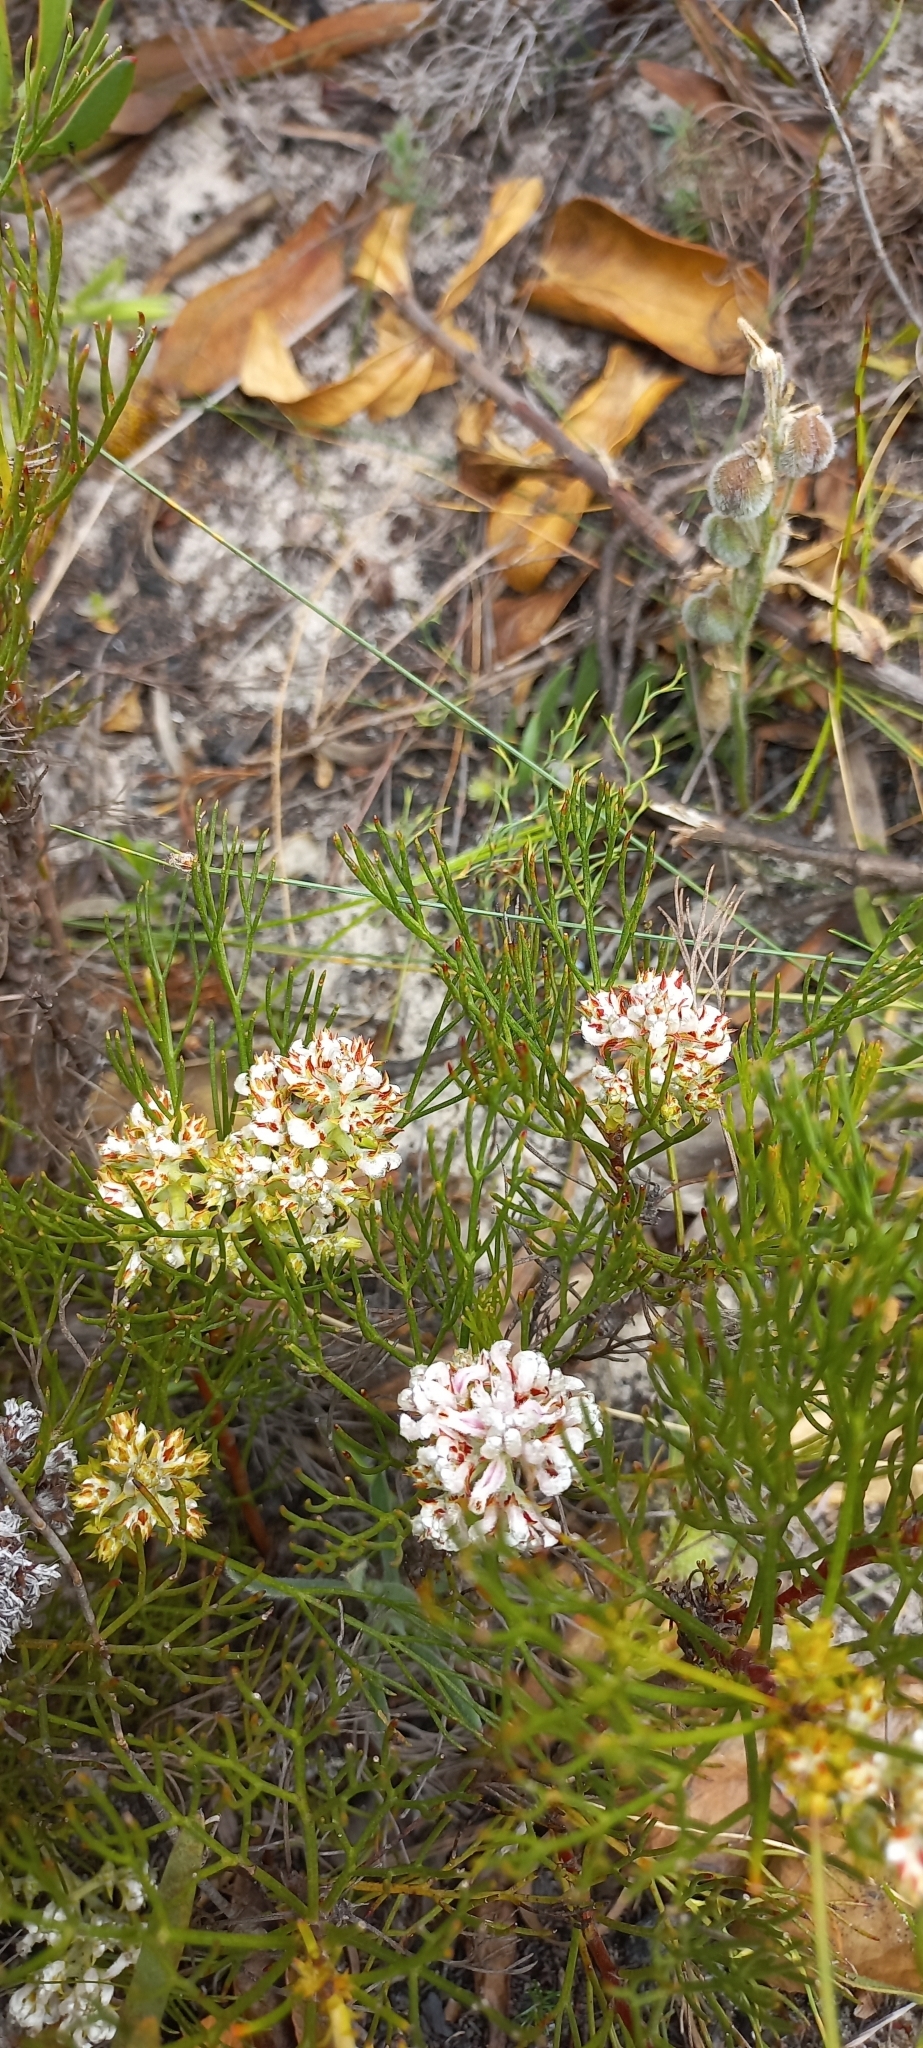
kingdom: Plantae
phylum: Tracheophyta
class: Magnoliopsida
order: Proteales
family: Proteaceae
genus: Serruria
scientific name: Serruria rubricaulis
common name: Red-stem spiderhead
